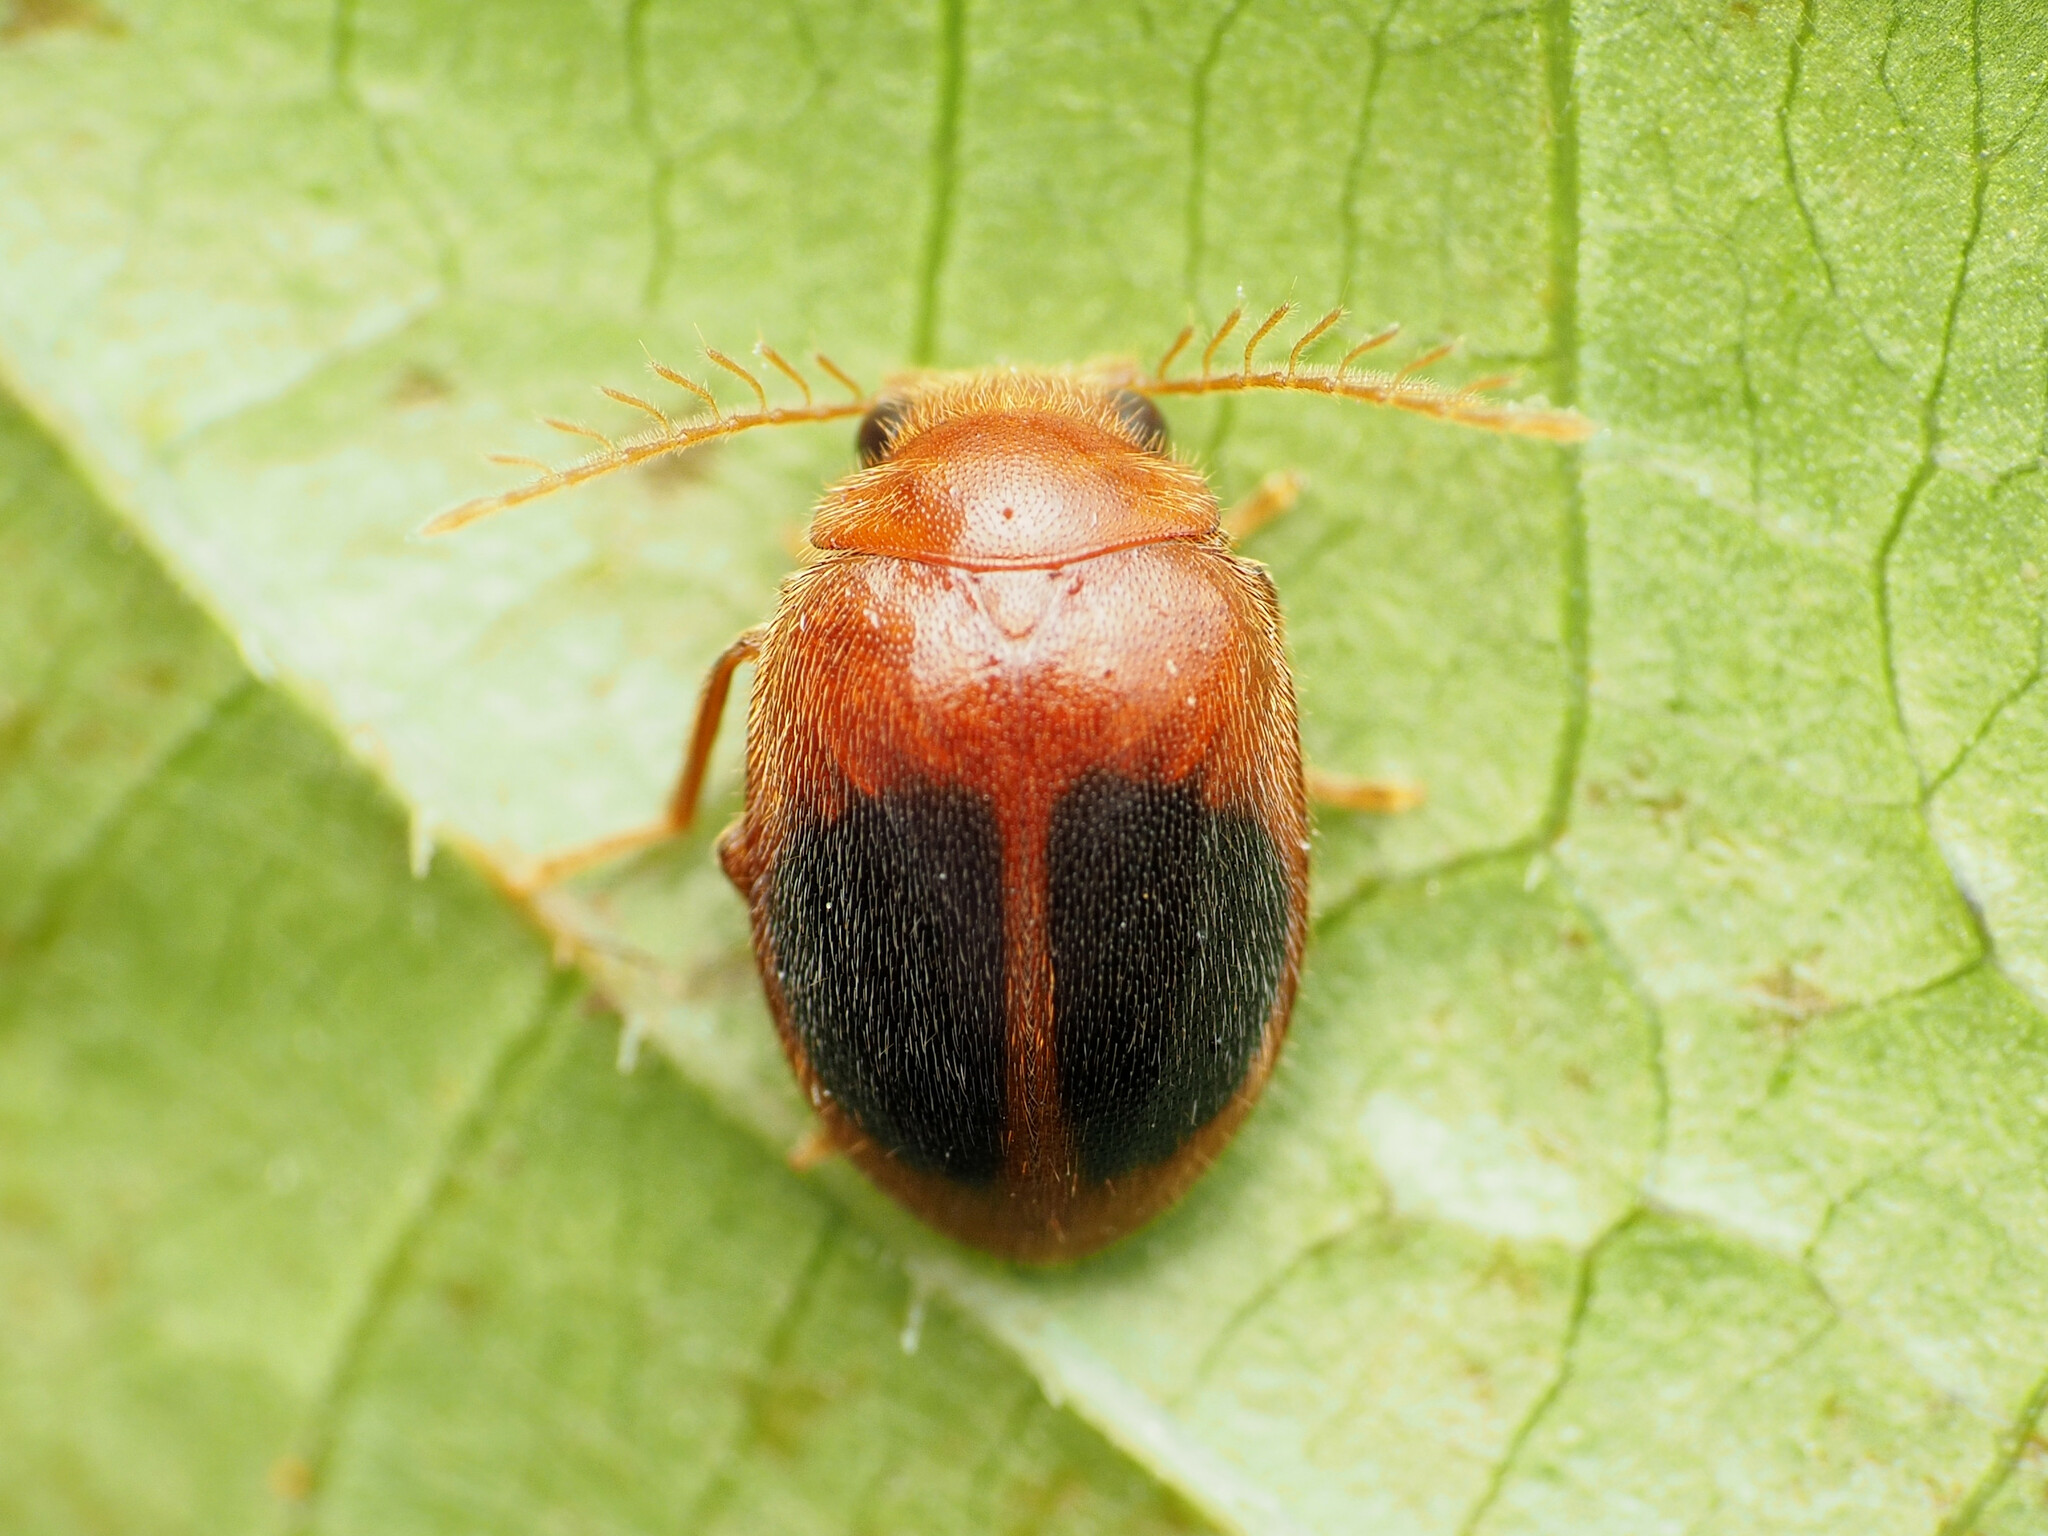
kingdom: Animalia
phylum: Arthropoda
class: Insecta
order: Coleoptera
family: Scirtidae
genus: Prionocyphon
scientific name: Prionocyphon discoideus
